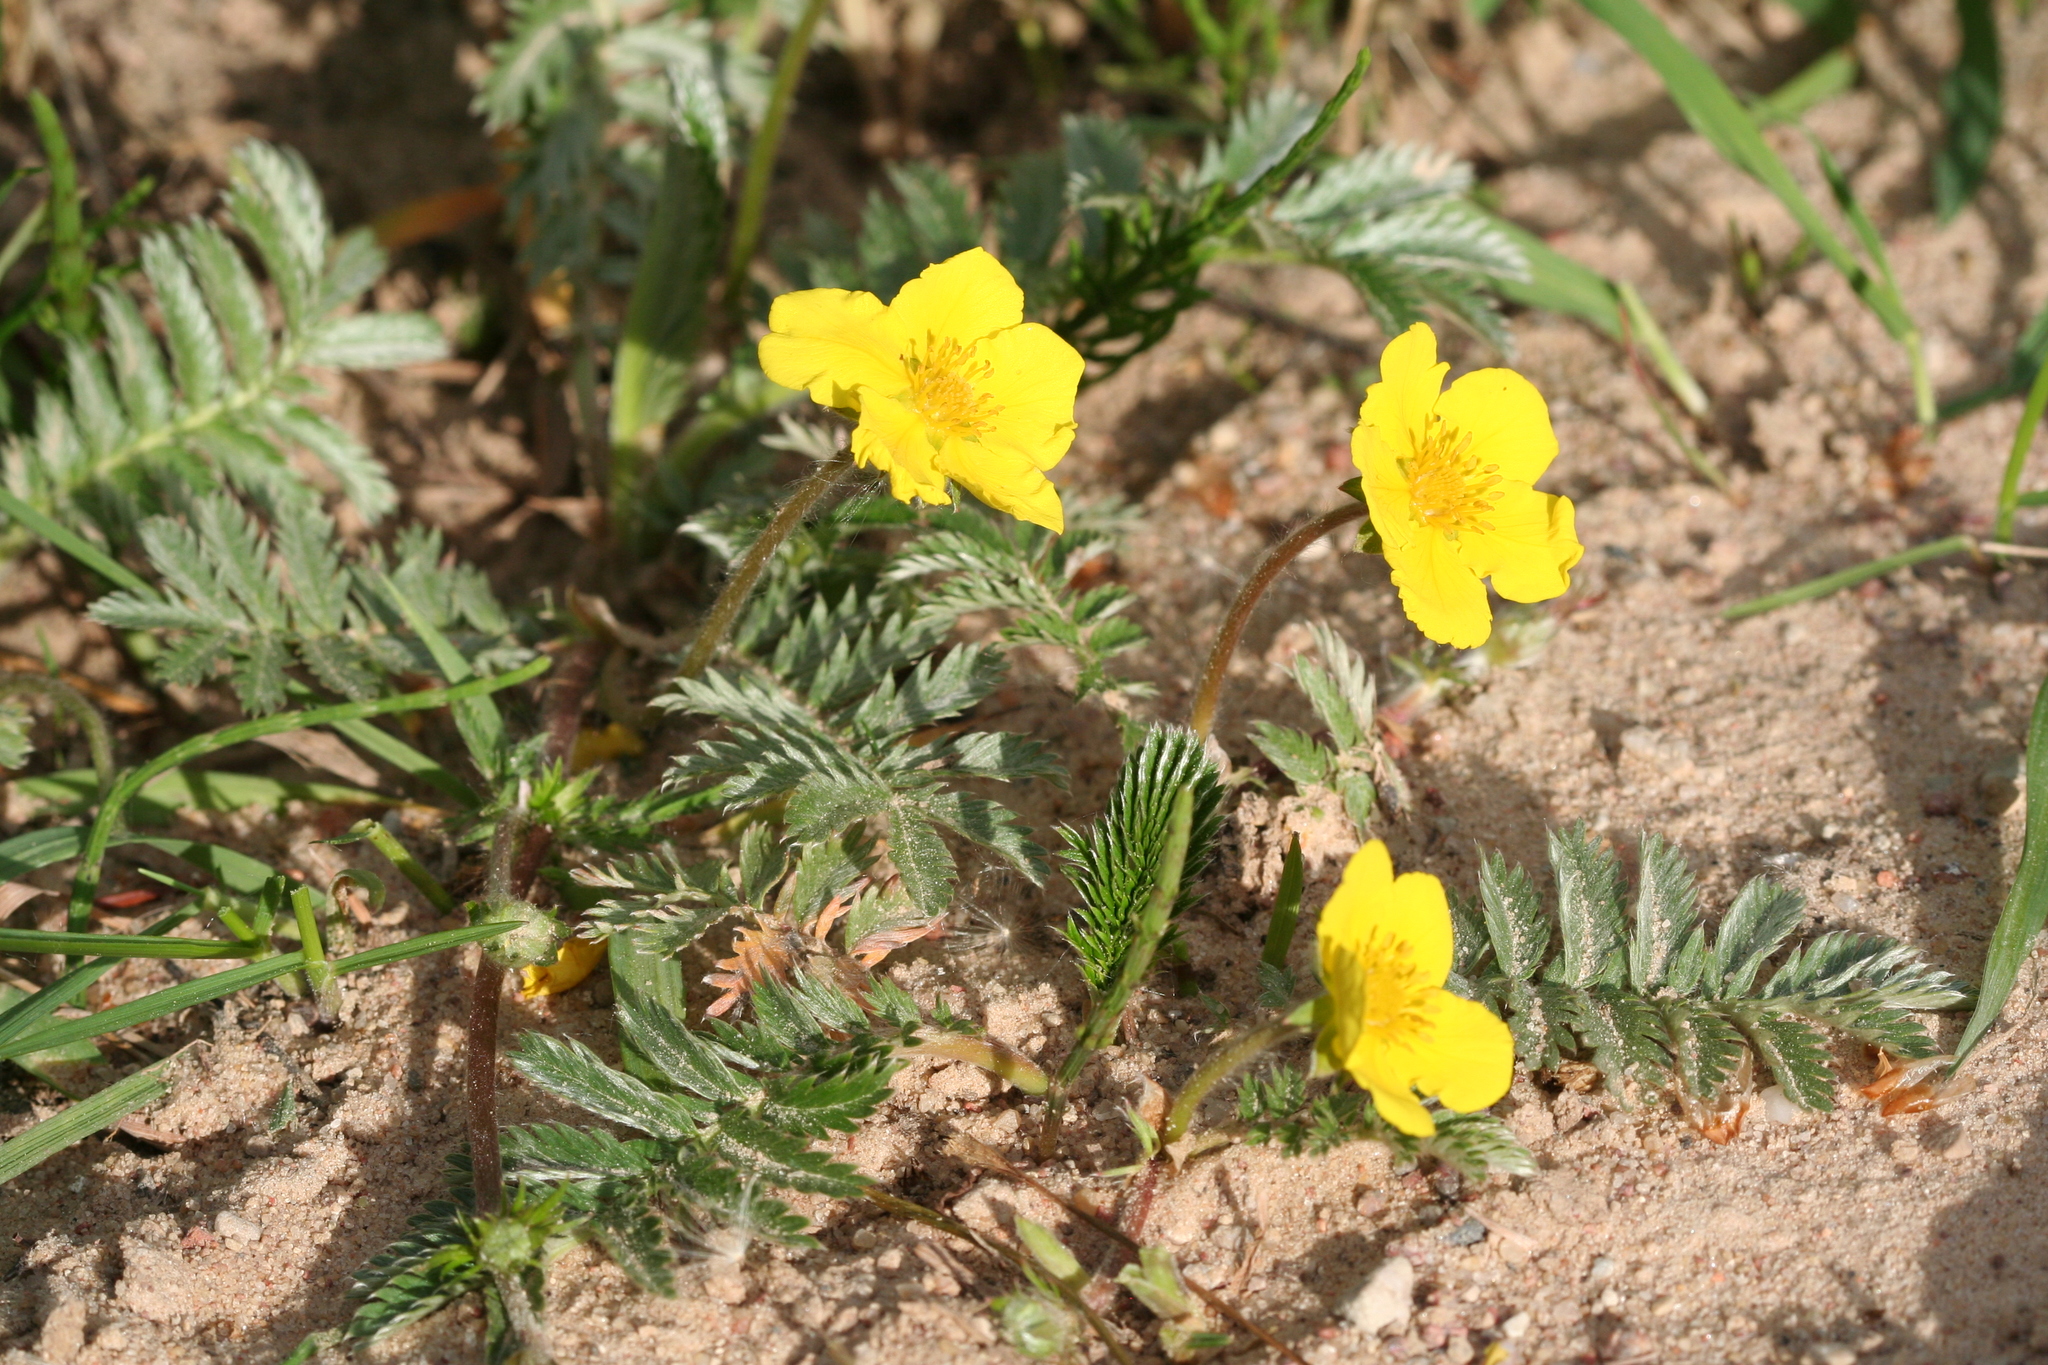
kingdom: Plantae
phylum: Tracheophyta
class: Magnoliopsida
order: Rosales
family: Rosaceae
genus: Argentina
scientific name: Argentina anserina
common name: Common silverweed
